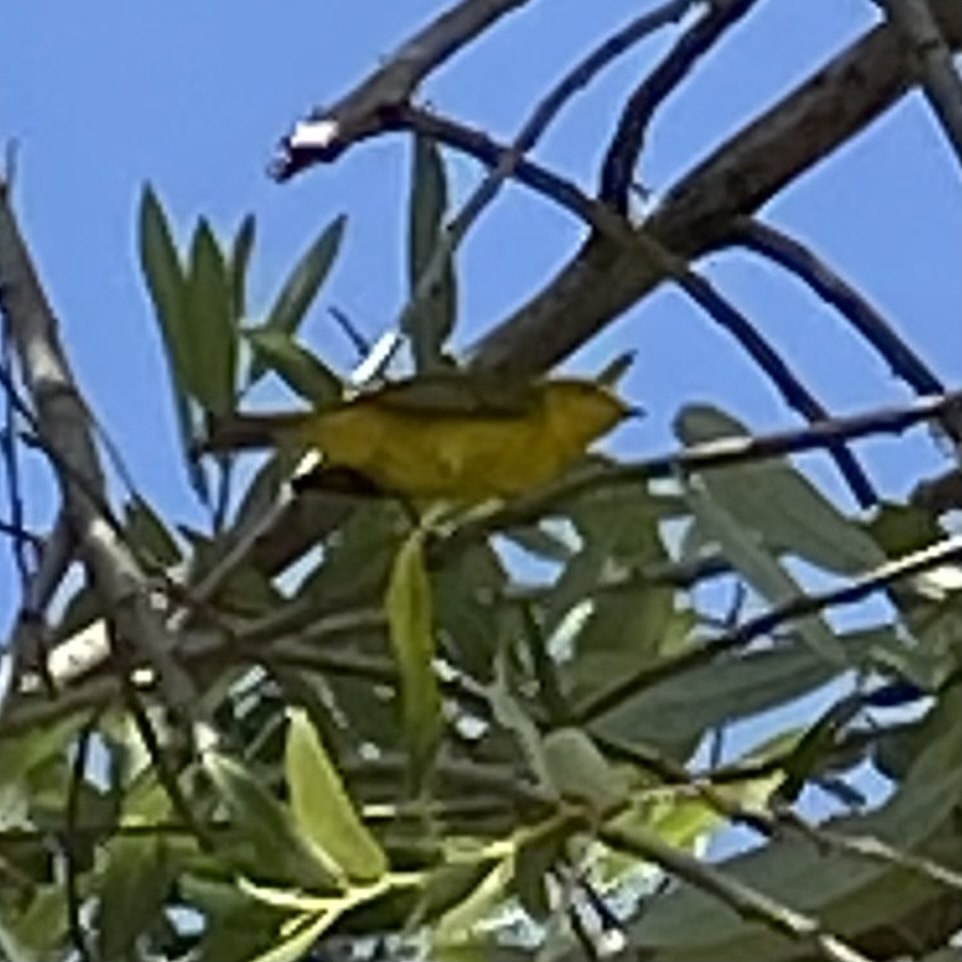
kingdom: Animalia
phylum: Chordata
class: Aves
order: Passeriformes
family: Parulidae
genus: Cardellina
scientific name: Cardellina pusilla
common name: Wilson's warbler
